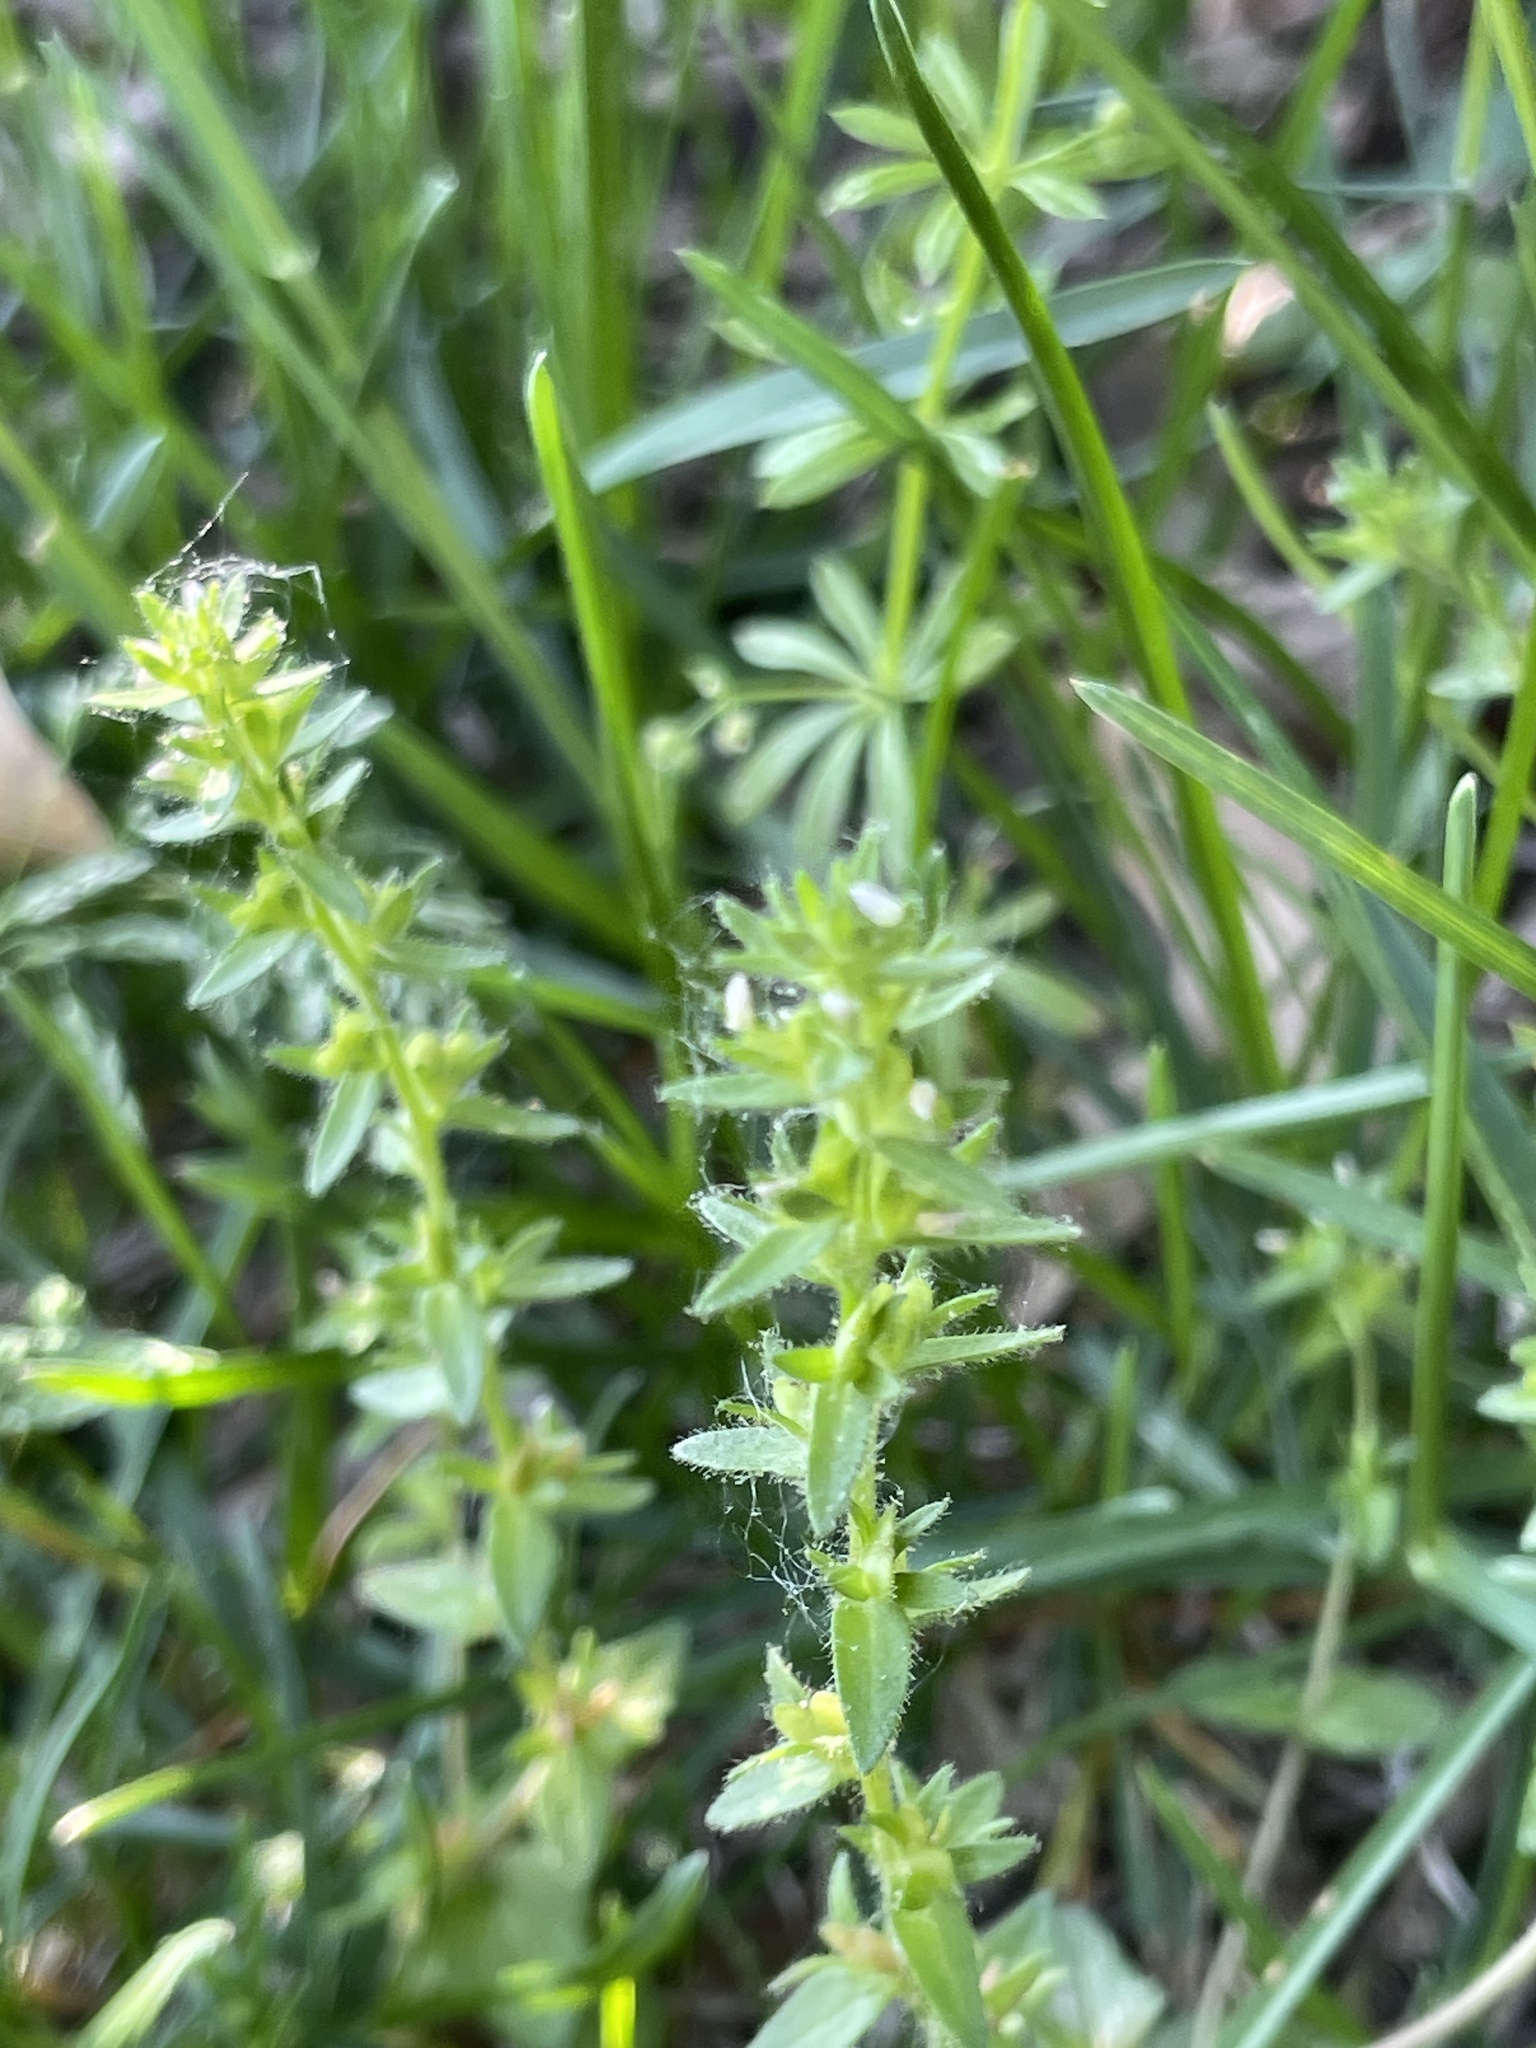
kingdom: Plantae
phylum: Tracheophyta
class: Magnoliopsida
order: Lamiales
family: Plantaginaceae
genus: Veronica
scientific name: Veronica arvensis
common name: Corn speedwell
